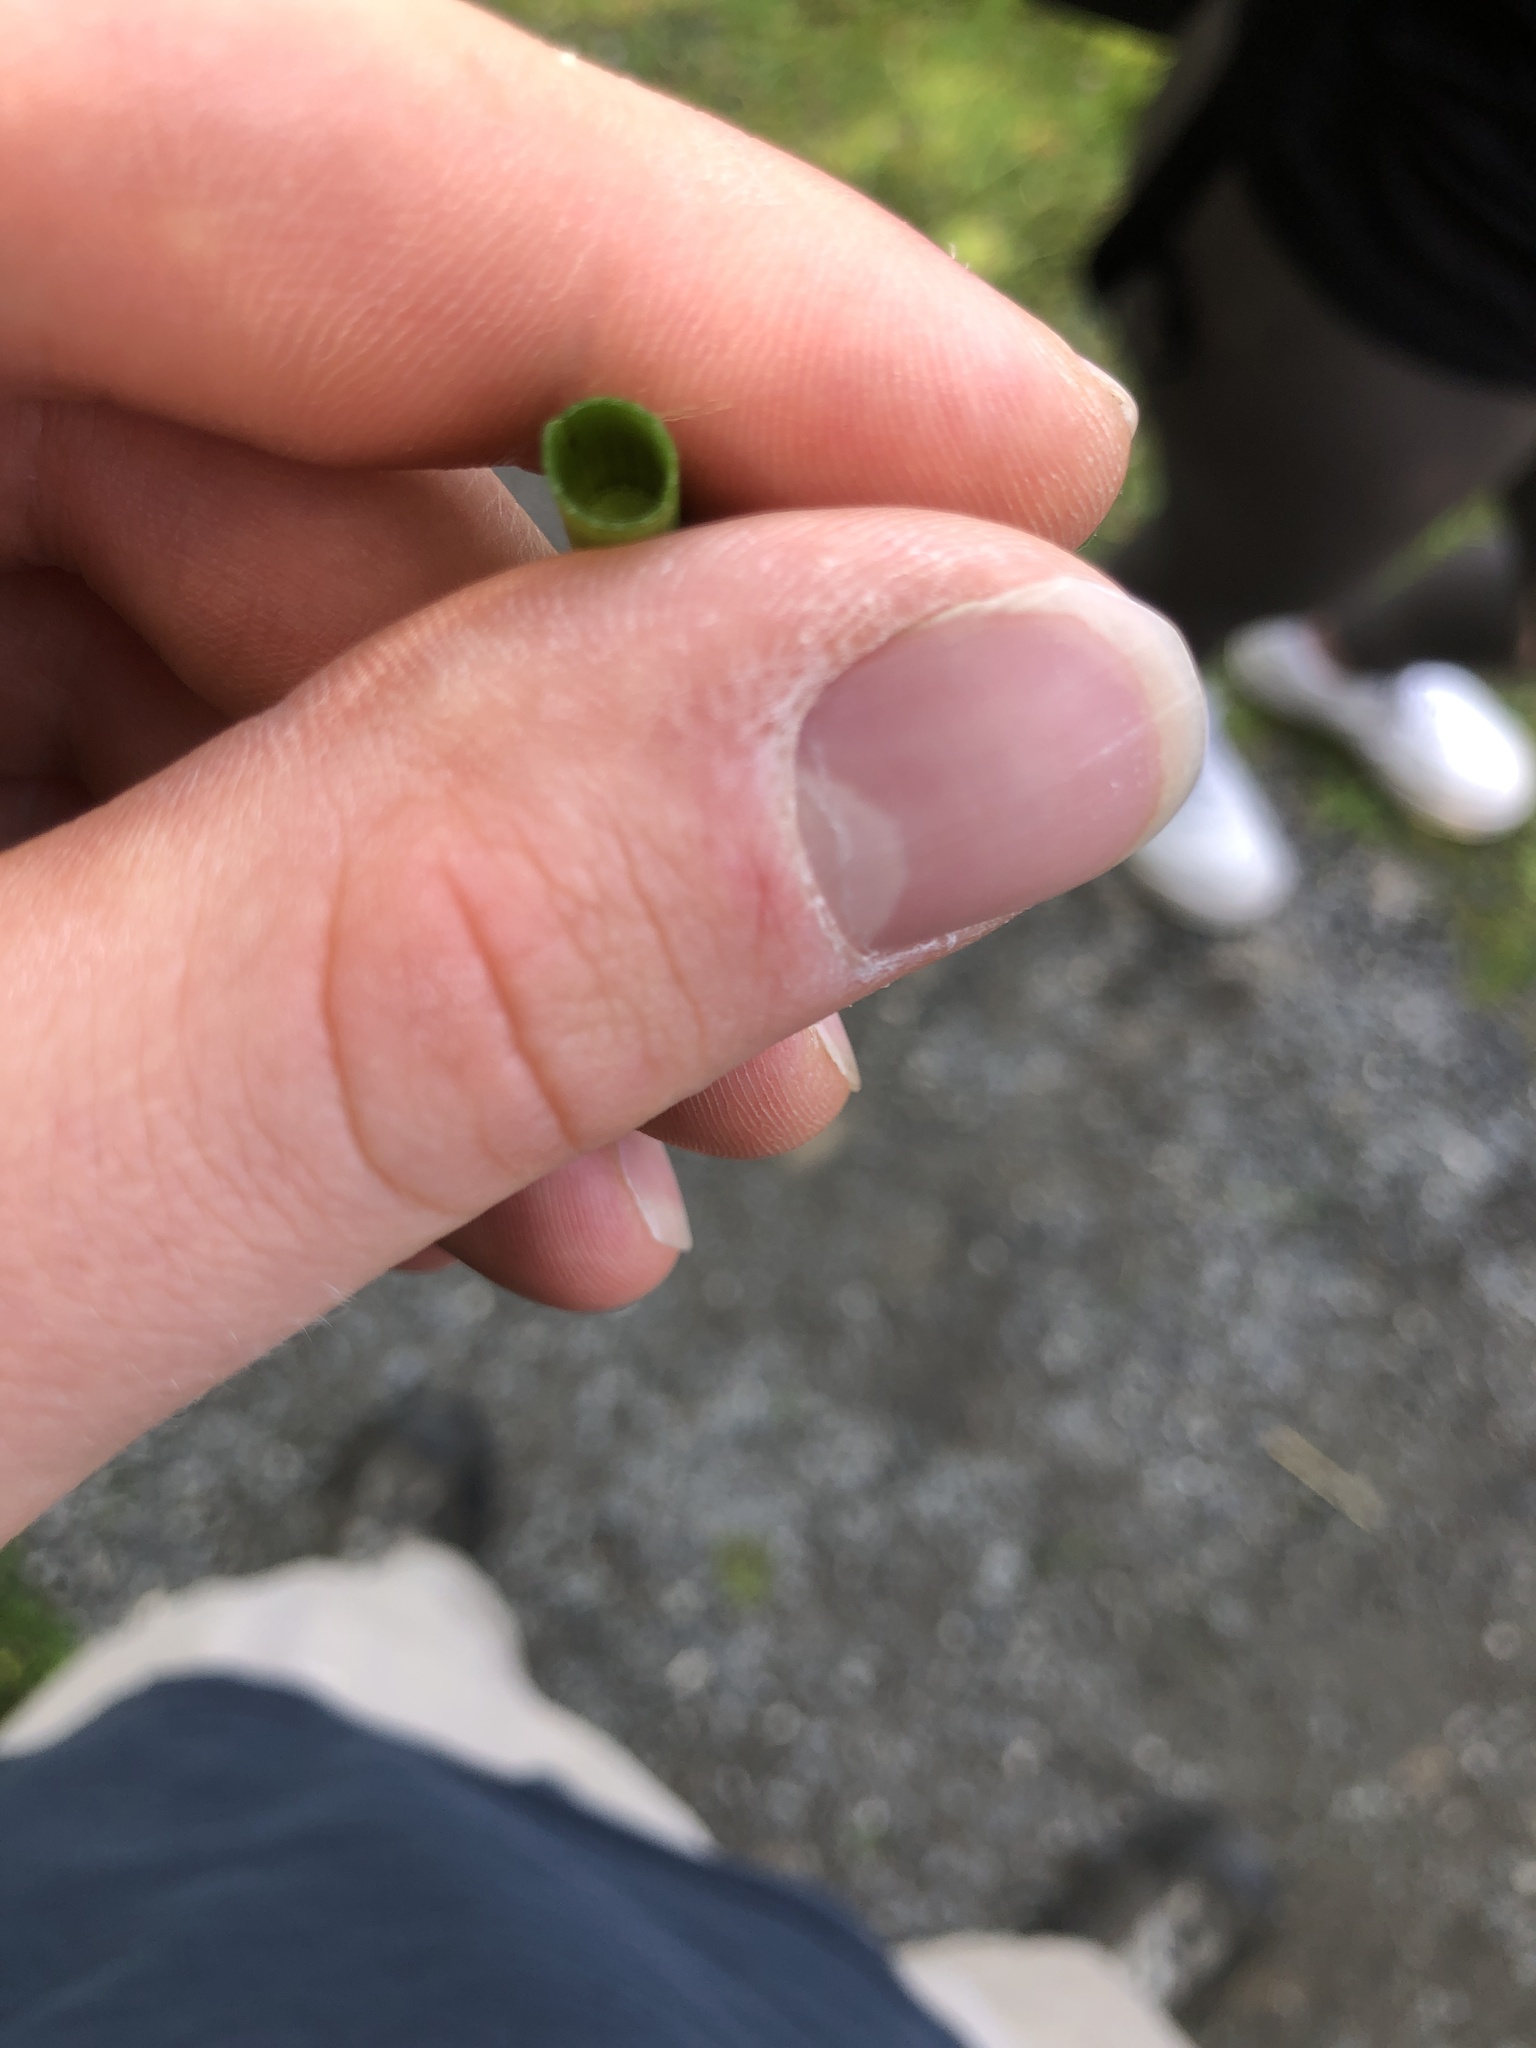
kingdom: Plantae
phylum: Tracheophyta
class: Polypodiopsida
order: Equisetales
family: Equisetaceae
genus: Equisetum
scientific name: Equisetum fluviatile
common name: Water horsetail
